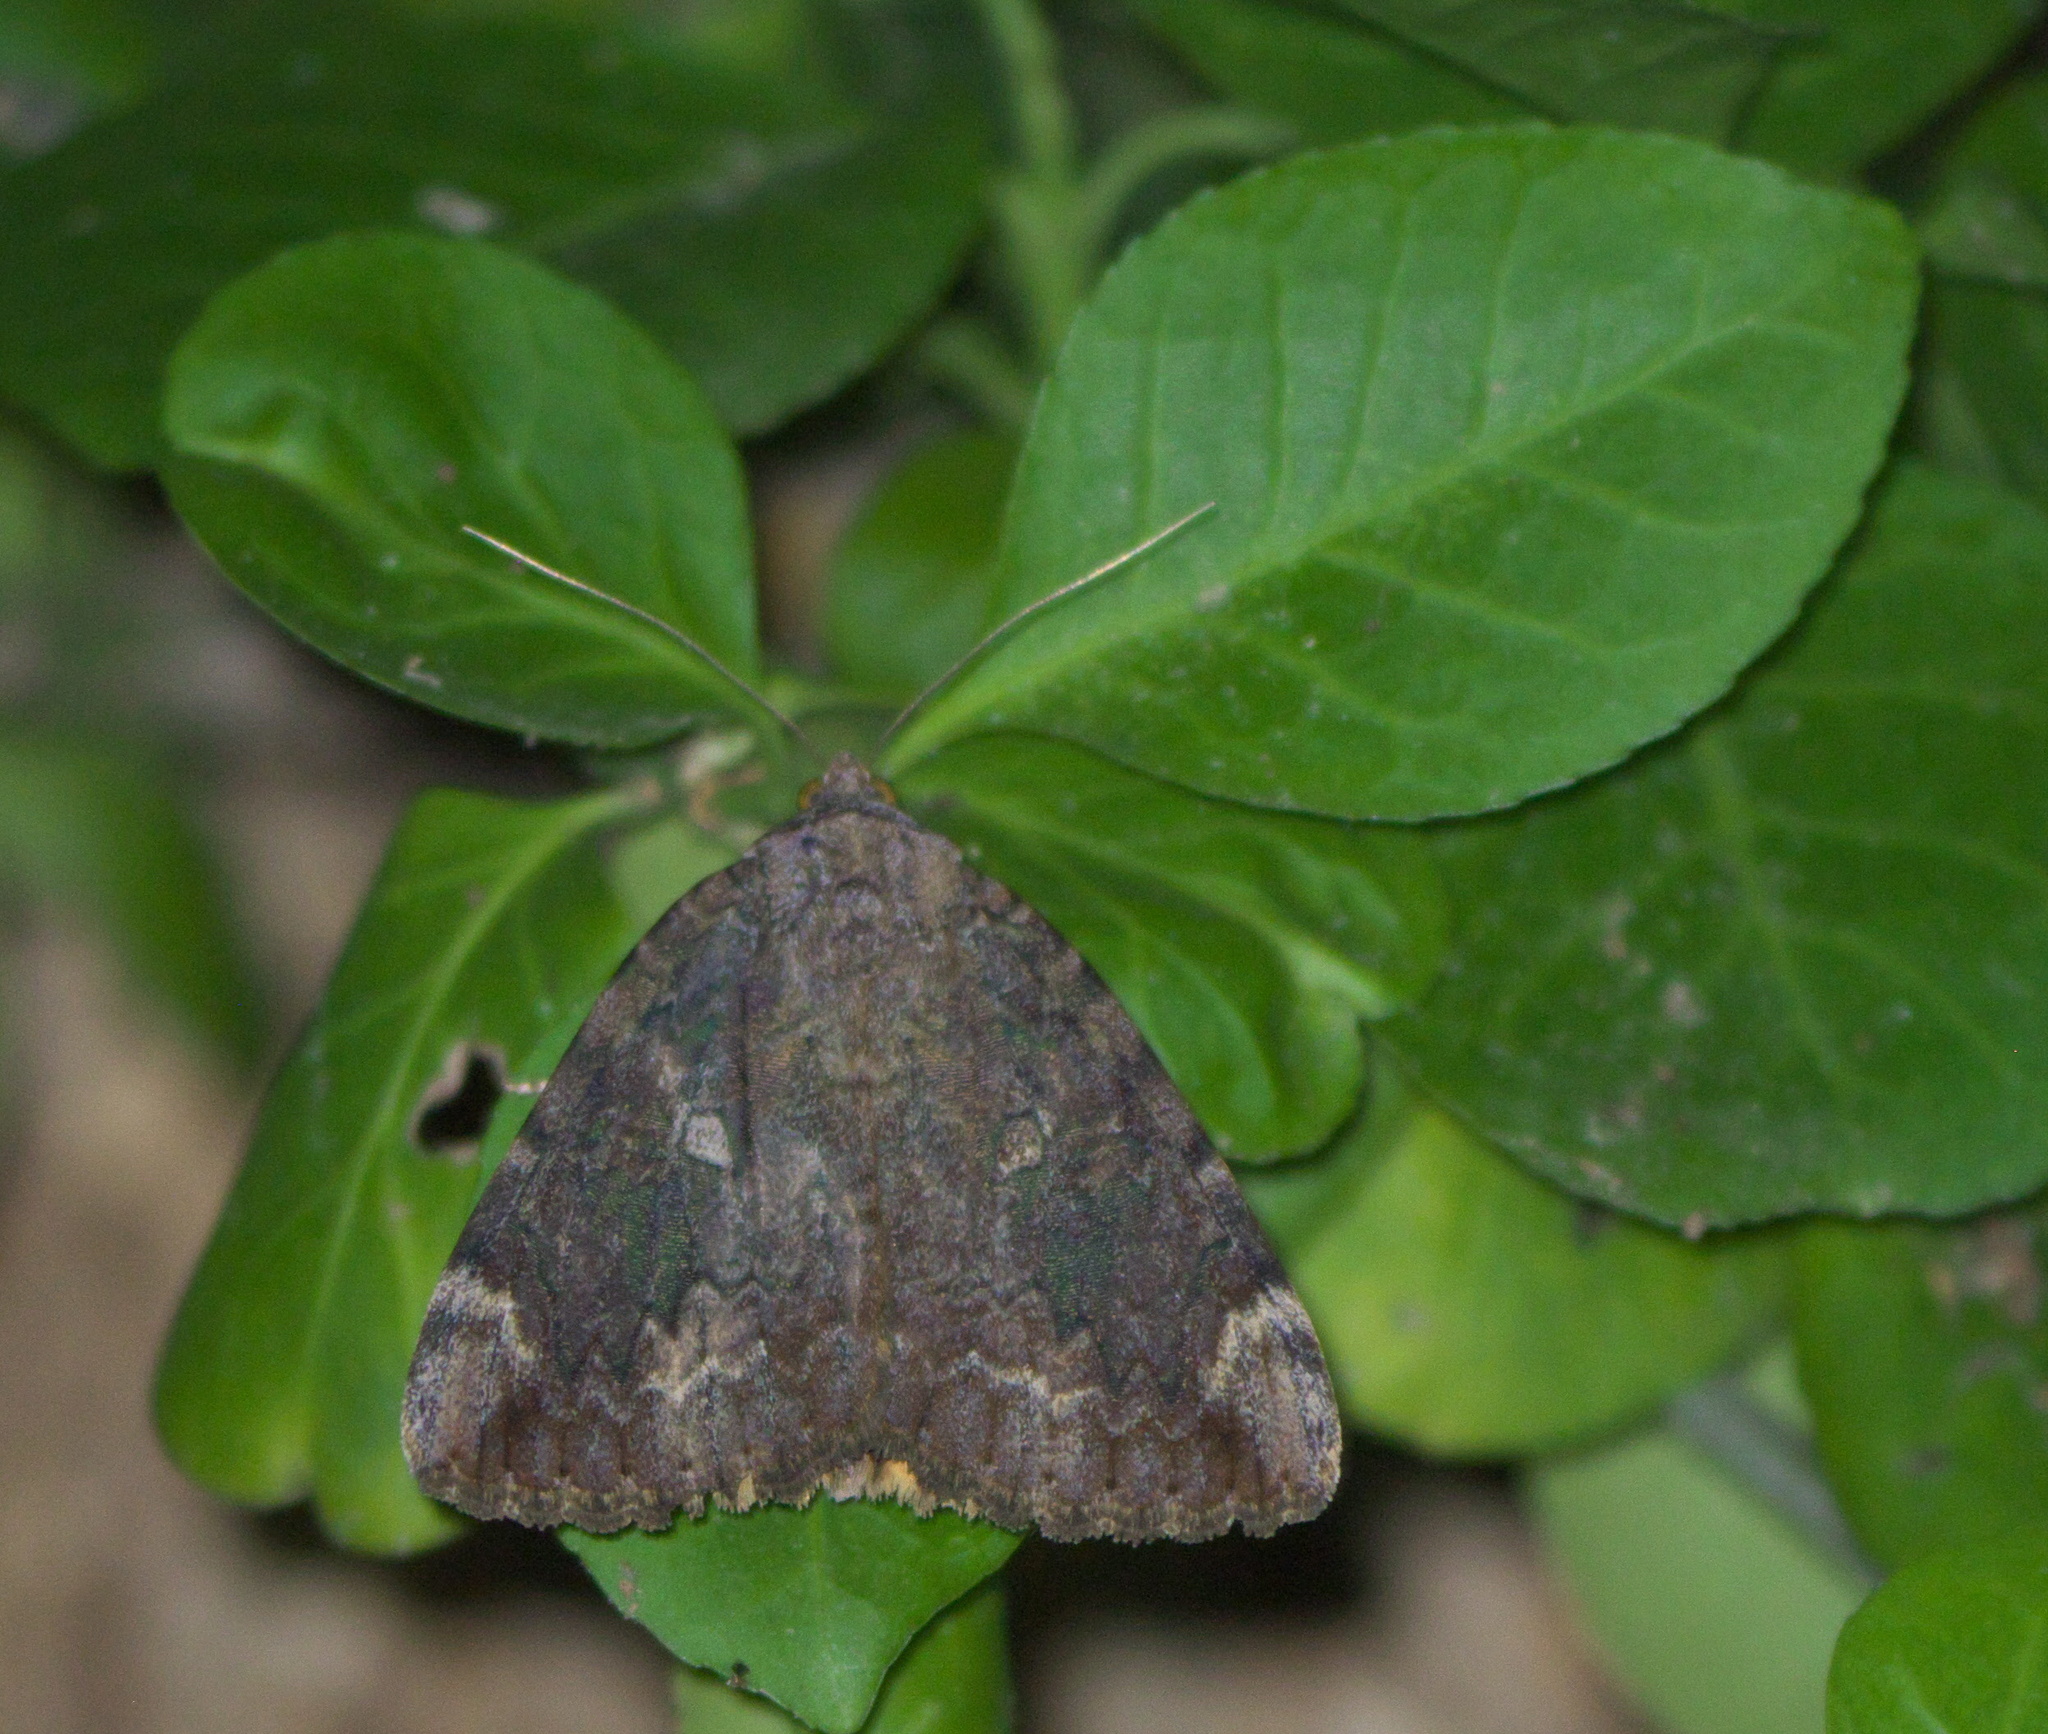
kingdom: Animalia
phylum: Arthropoda
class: Insecta
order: Lepidoptera
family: Erebidae
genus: Catocala
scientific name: Catocala innubens
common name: Betrothed underwing
